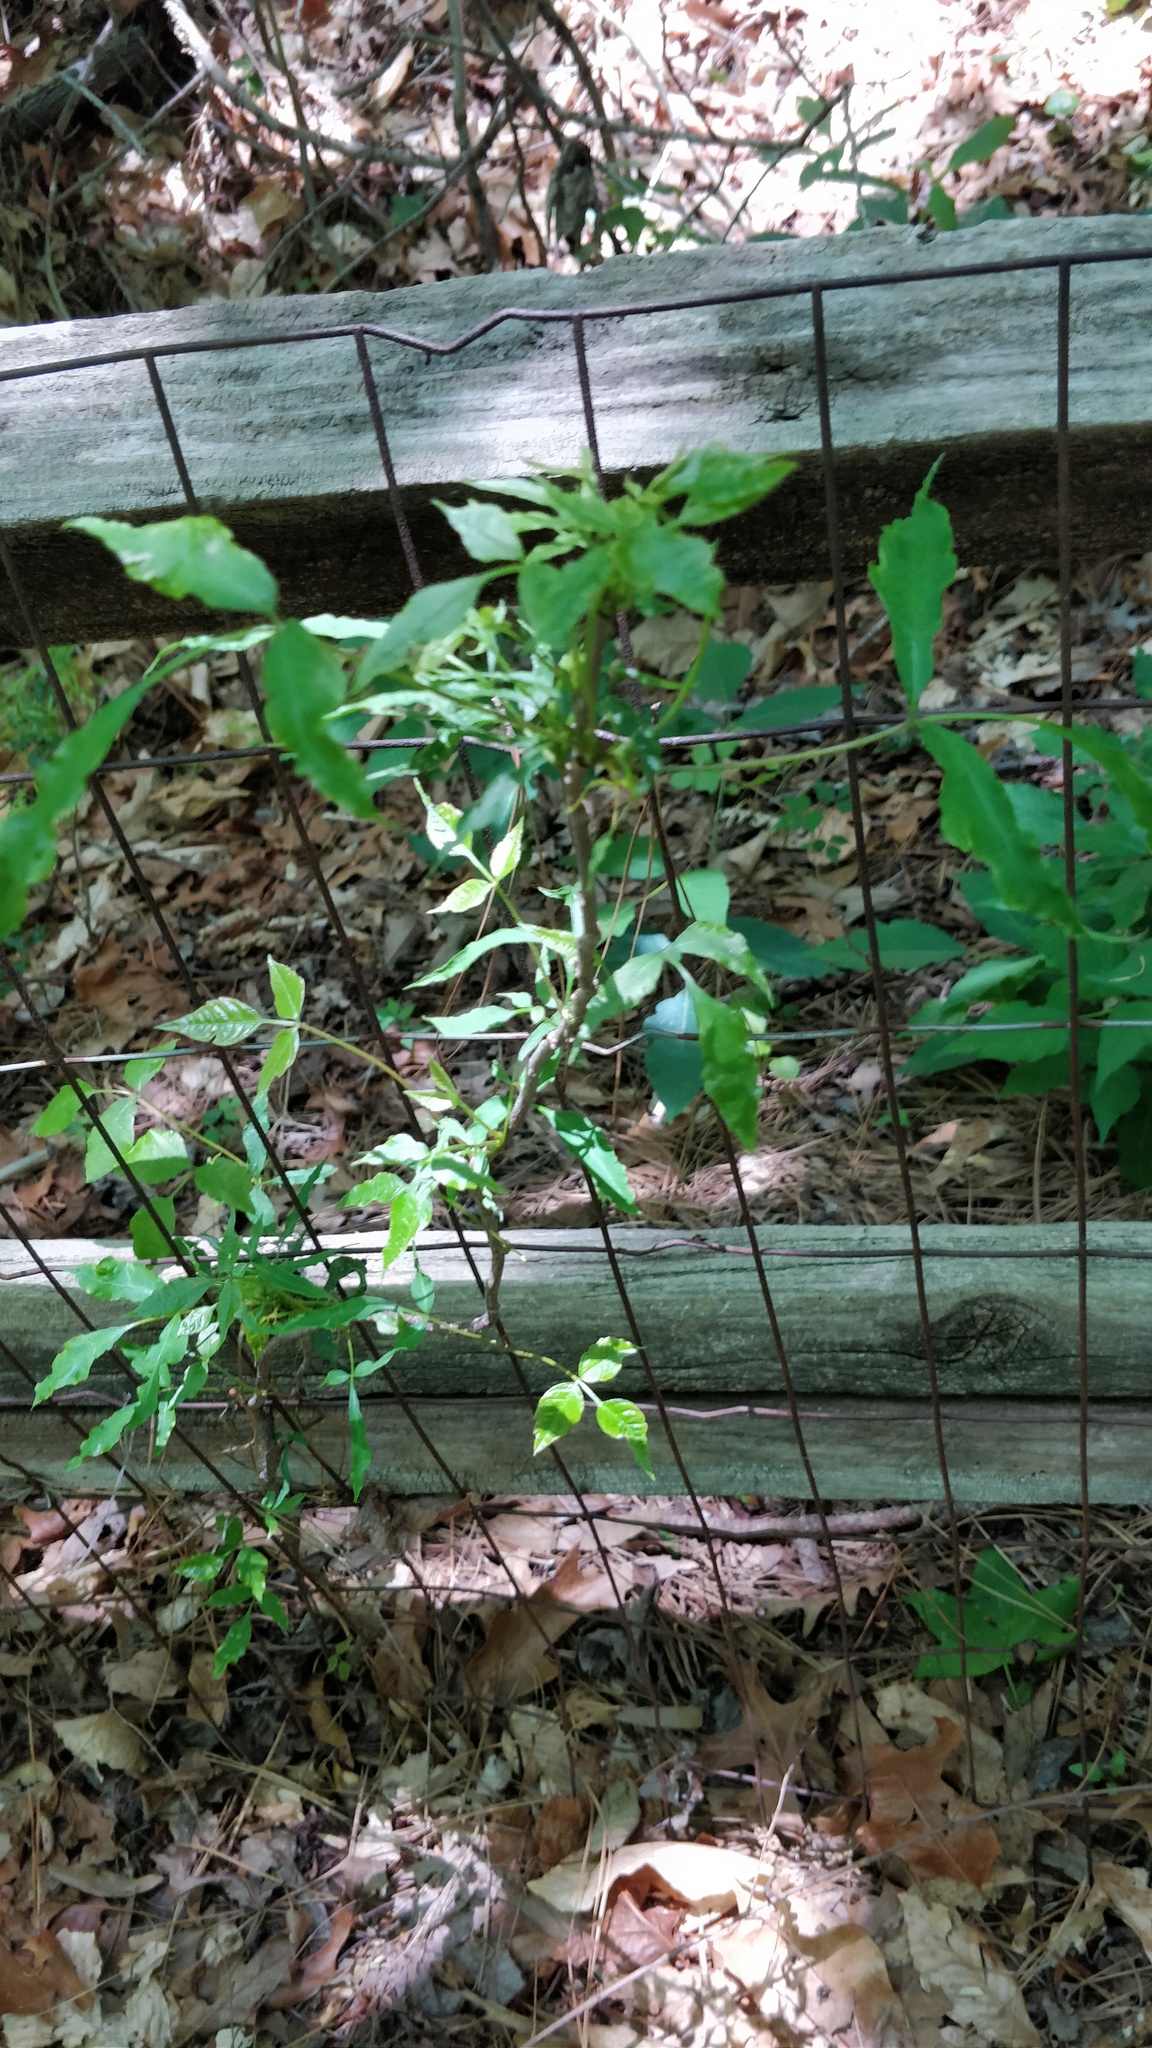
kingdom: Plantae
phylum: Tracheophyta
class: Magnoliopsida
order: Sapindales
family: Anacardiaceae
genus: Toxicodendron
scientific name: Toxicodendron radicans
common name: Poison ivy
